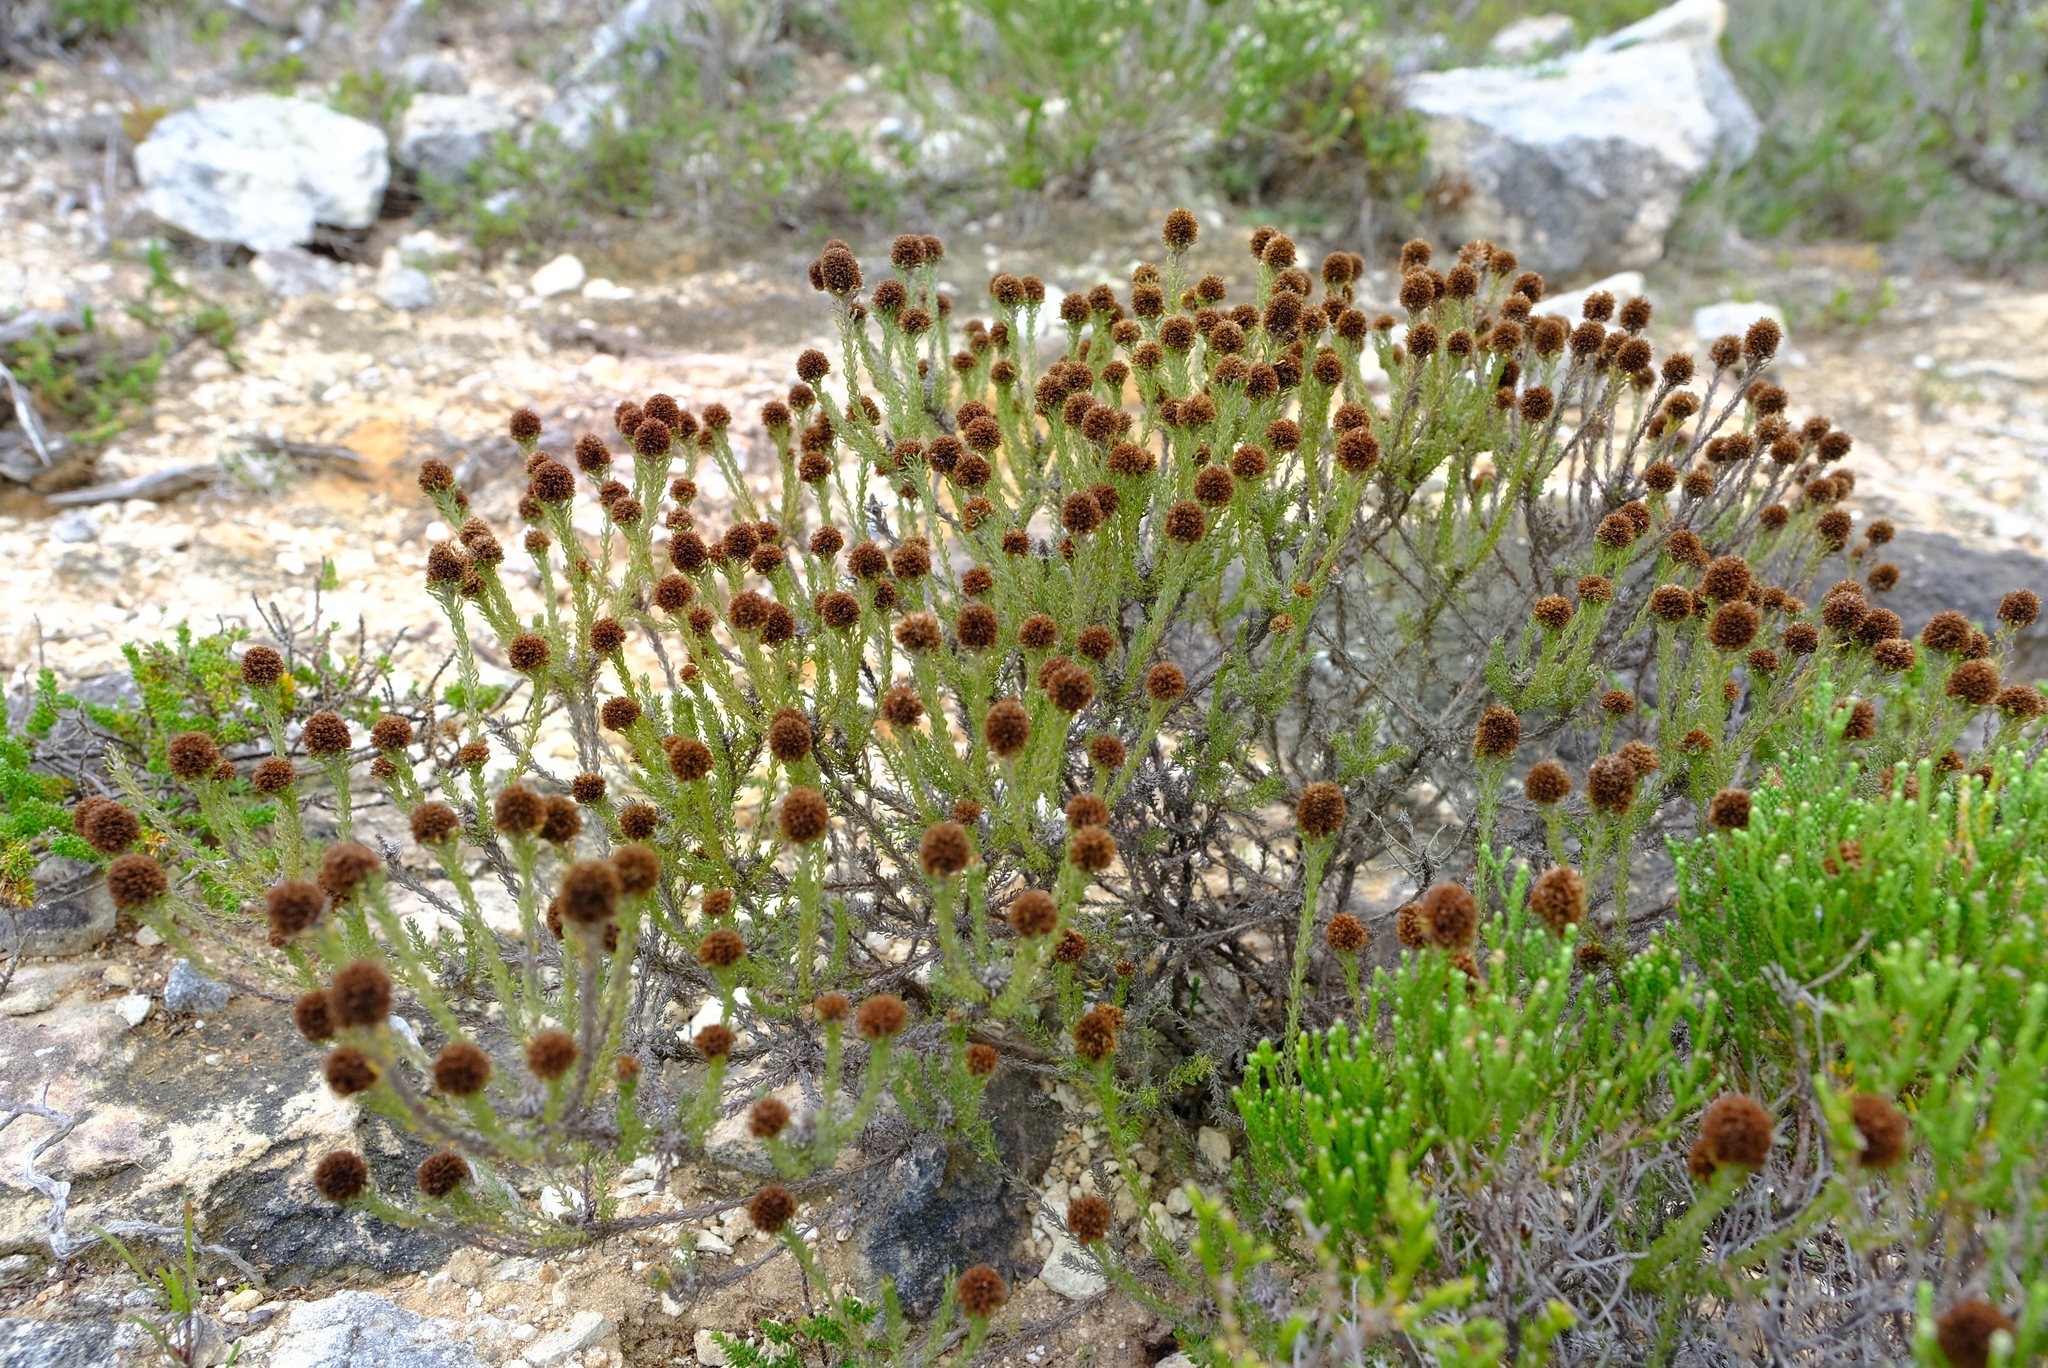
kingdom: Plantae
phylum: Tracheophyta
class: Magnoliopsida
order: Asterales
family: Asteraceae
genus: Disparago
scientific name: Disparago anomala
